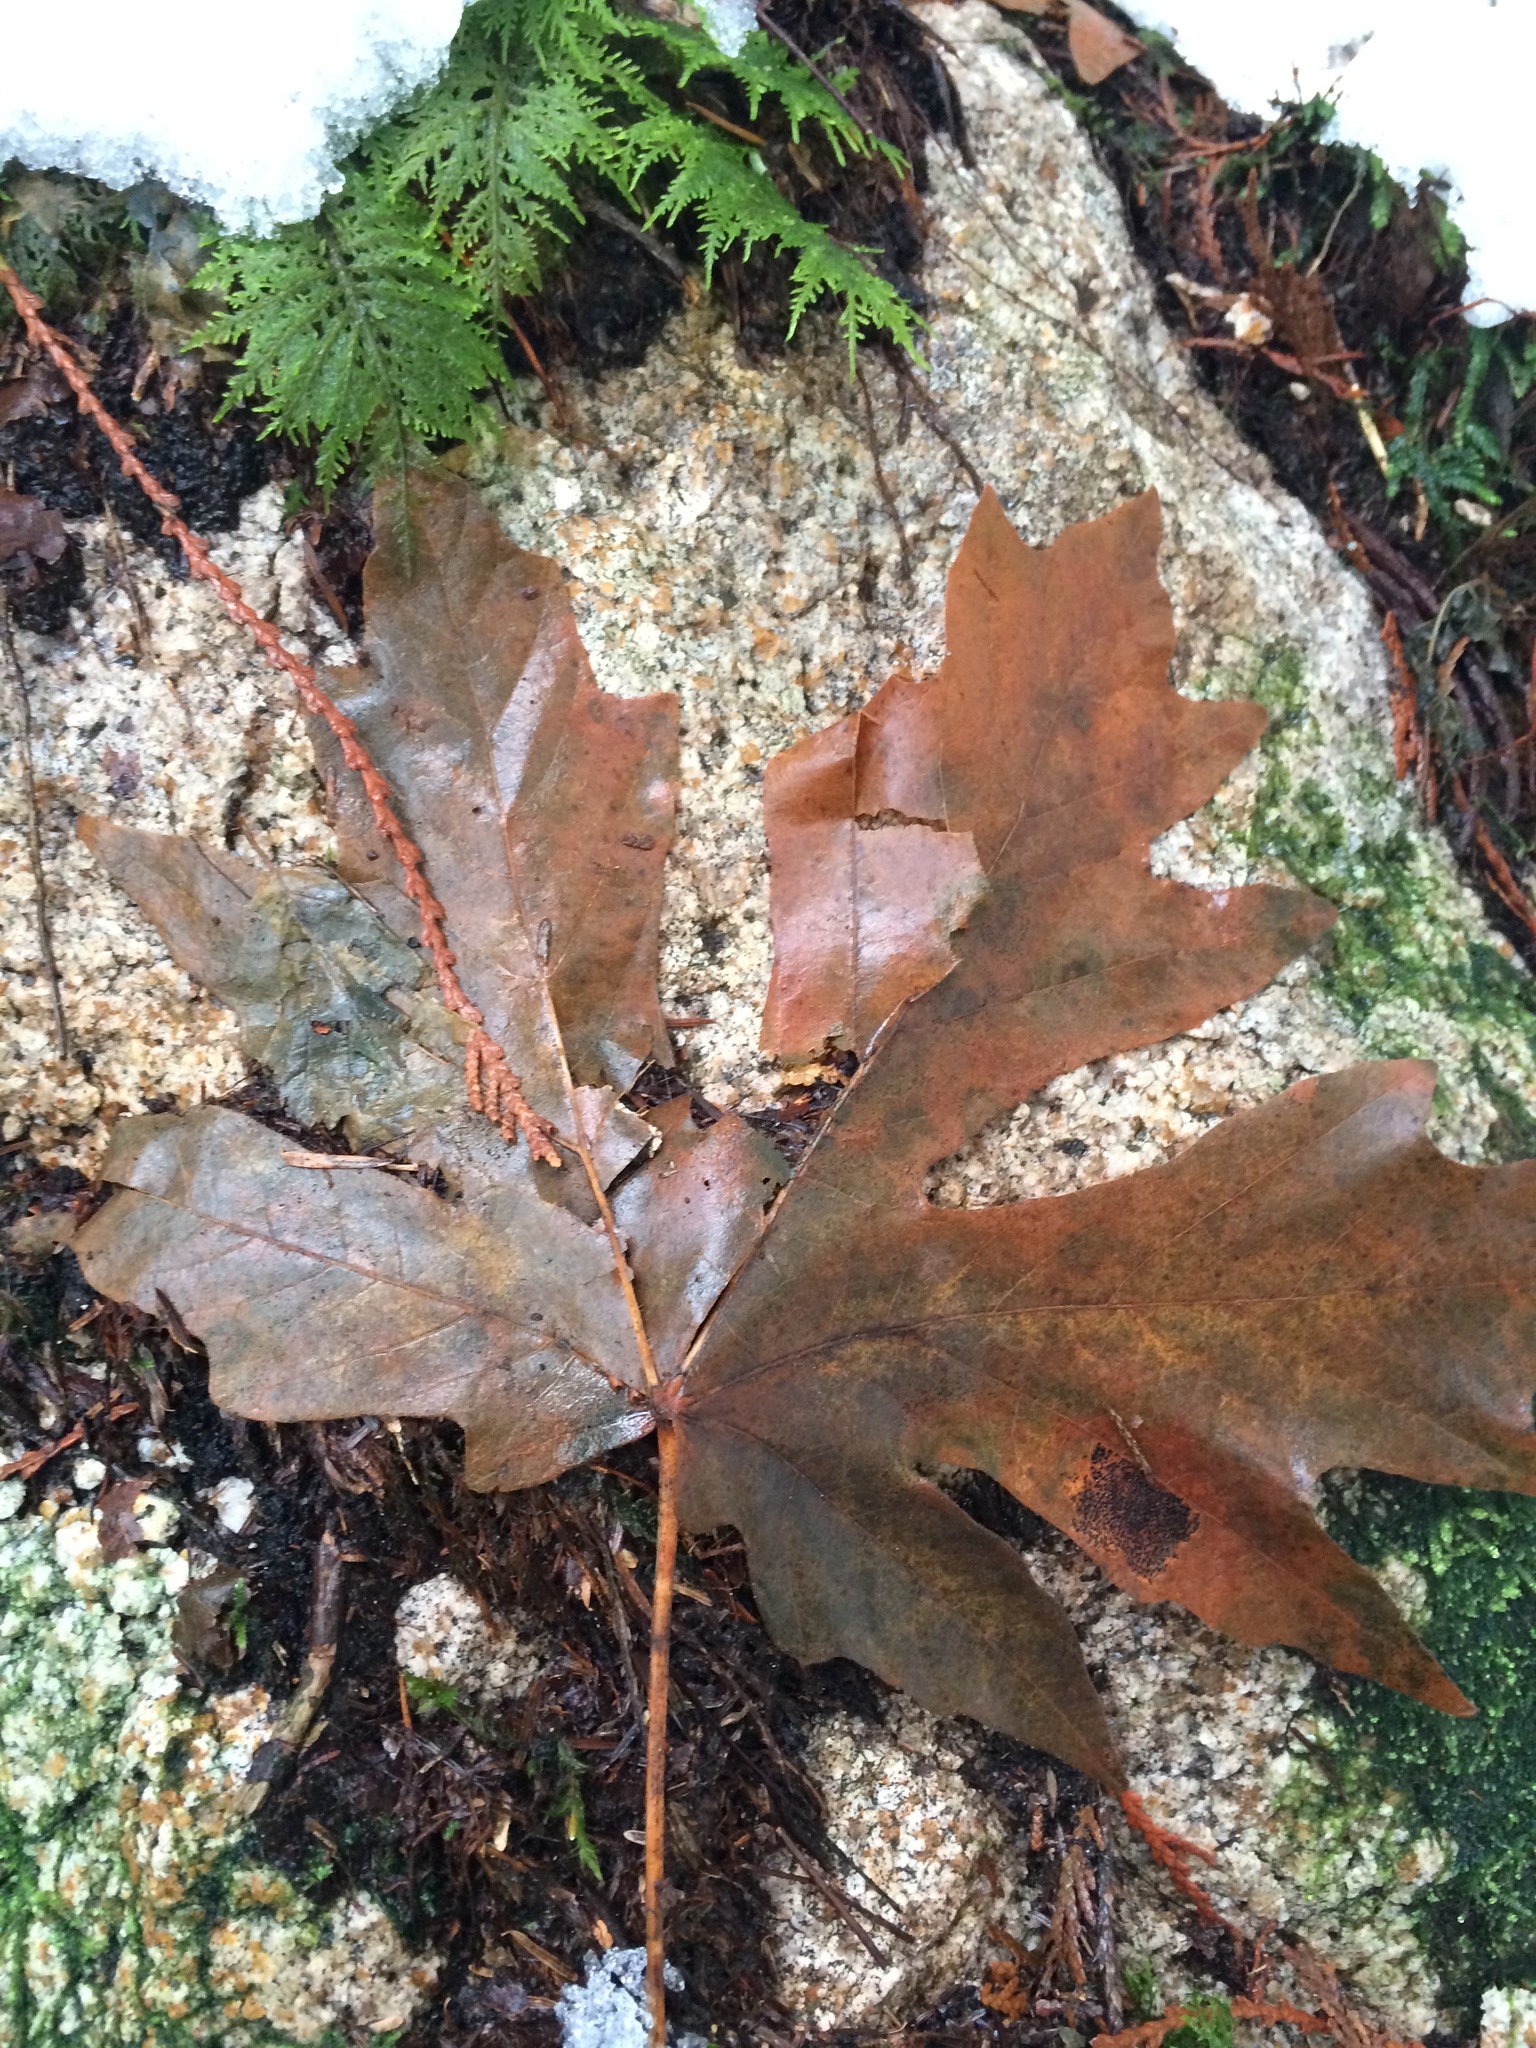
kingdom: Plantae
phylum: Tracheophyta
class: Magnoliopsida
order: Sapindales
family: Sapindaceae
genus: Acer
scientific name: Acer macrophyllum
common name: Oregon maple
